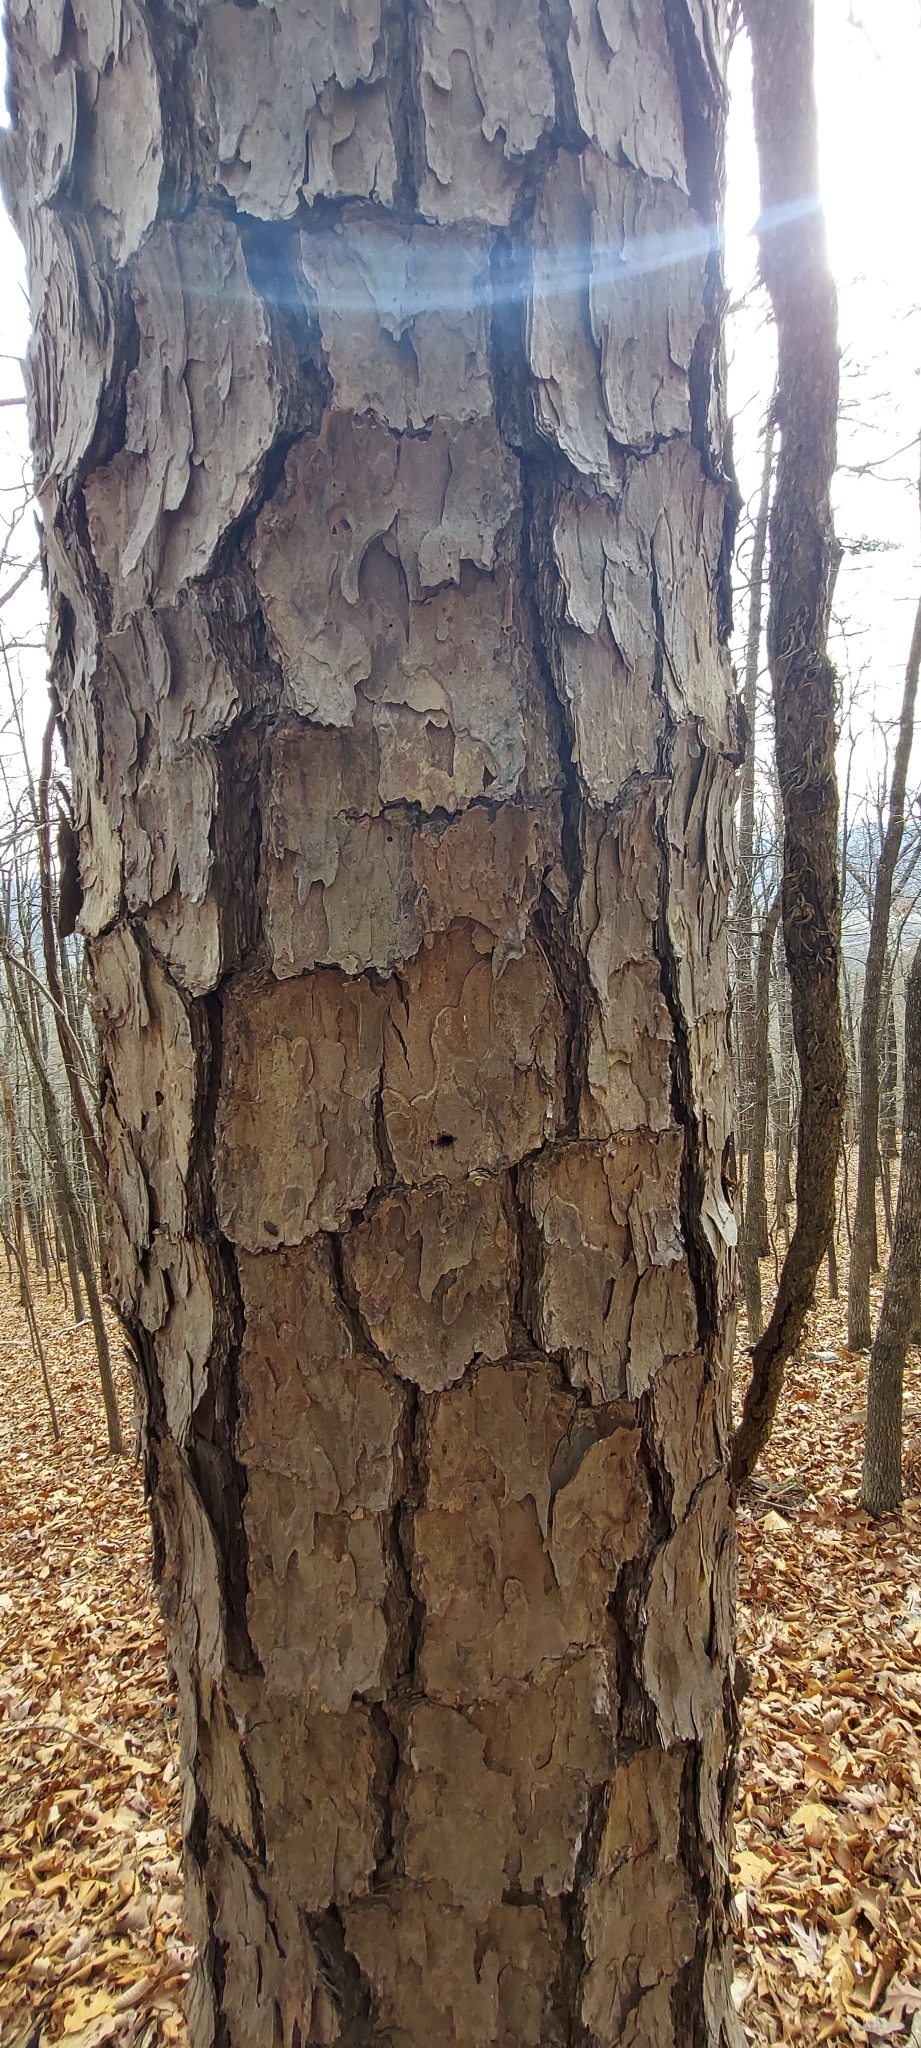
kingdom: Plantae
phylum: Tracheophyta
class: Pinopsida
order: Pinales
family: Pinaceae
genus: Pinus
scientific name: Pinus echinata
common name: Shortleaf pine
